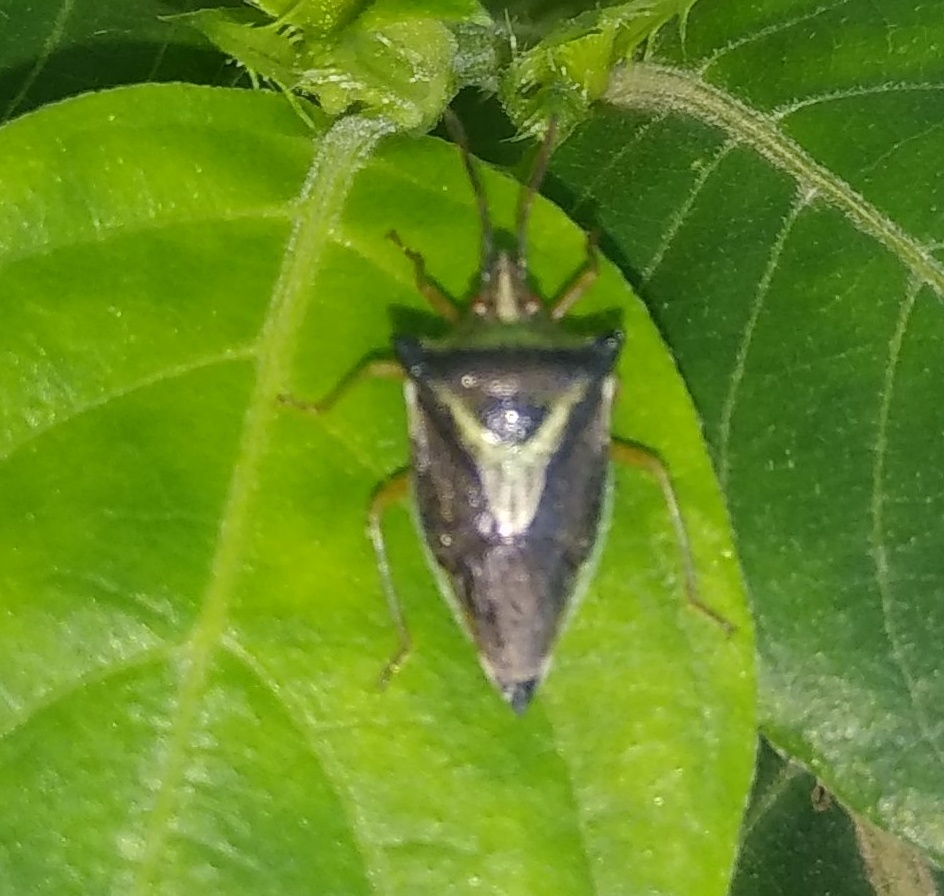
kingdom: Animalia
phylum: Arthropoda
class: Insecta
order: Hemiptera
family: Pentatomidae
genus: Gynenica
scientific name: Gynenica
